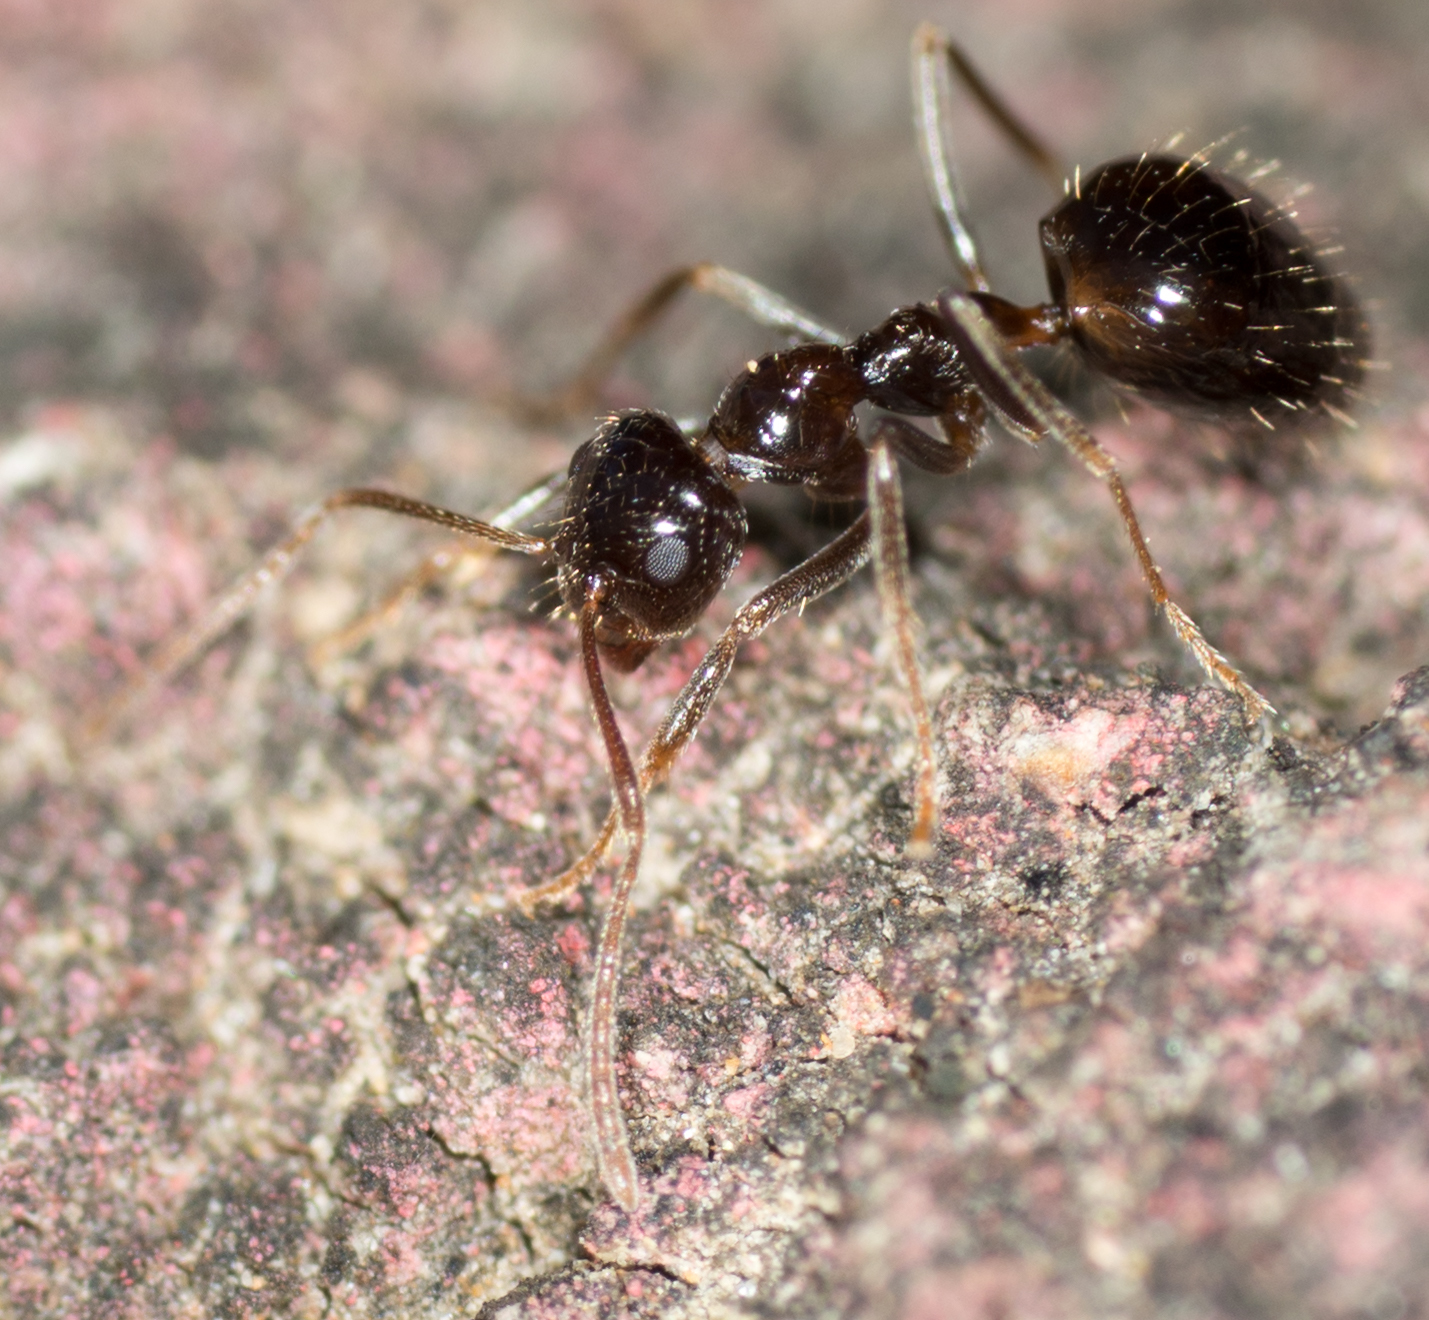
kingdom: Animalia
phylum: Arthropoda
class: Insecta
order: Hymenoptera
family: Formicidae
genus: Prenolepis
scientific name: Prenolepis imparis
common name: Small honey ant
